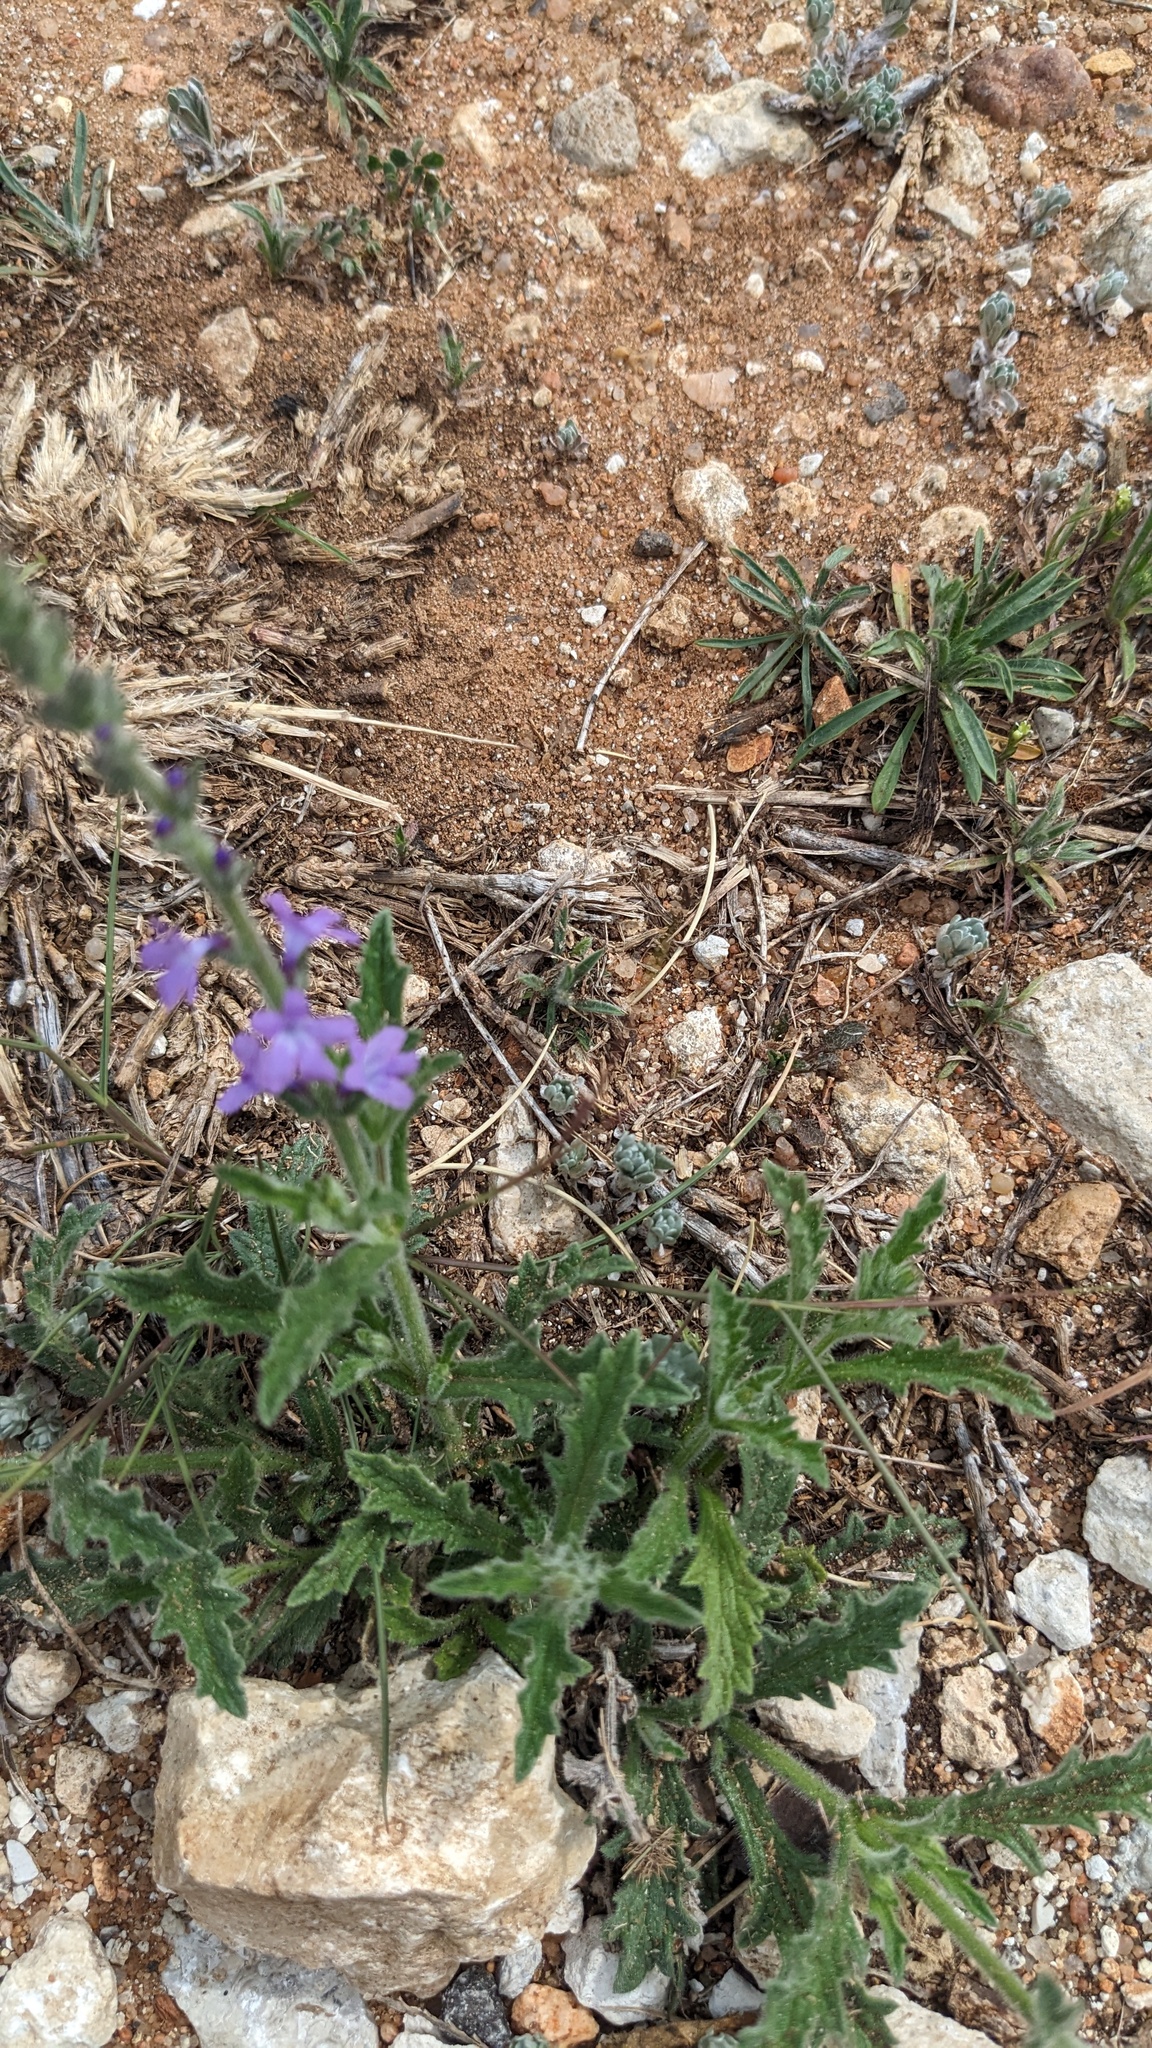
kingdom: Plantae
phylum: Tracheophyta
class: Magnoliopsida
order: Lamiales
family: Verbenaceae
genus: Verbena
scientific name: Verbena canescens
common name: Gray vervain
